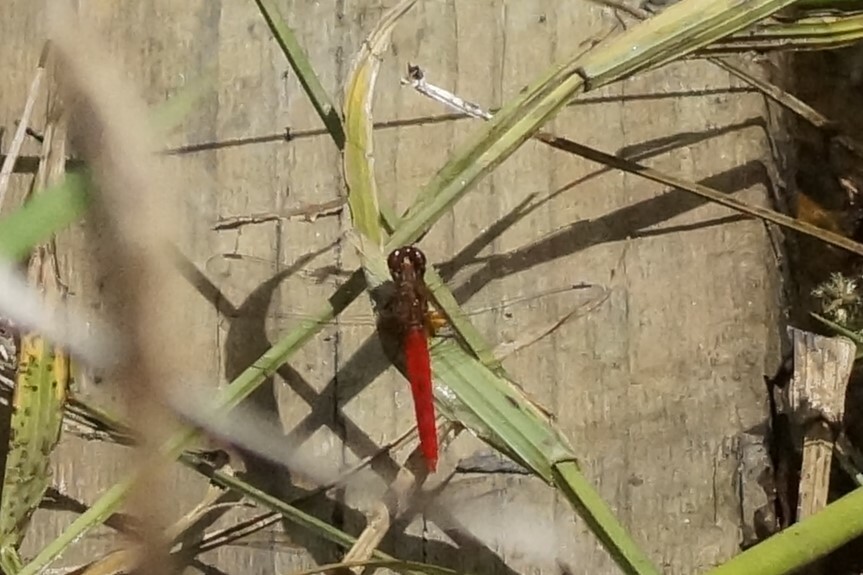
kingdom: Animalia
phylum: Arthropoda
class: Insecta
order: Odonata
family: Libellulidae
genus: Rhodothemis
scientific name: Rhodothemis lieftincki
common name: Red arrow
